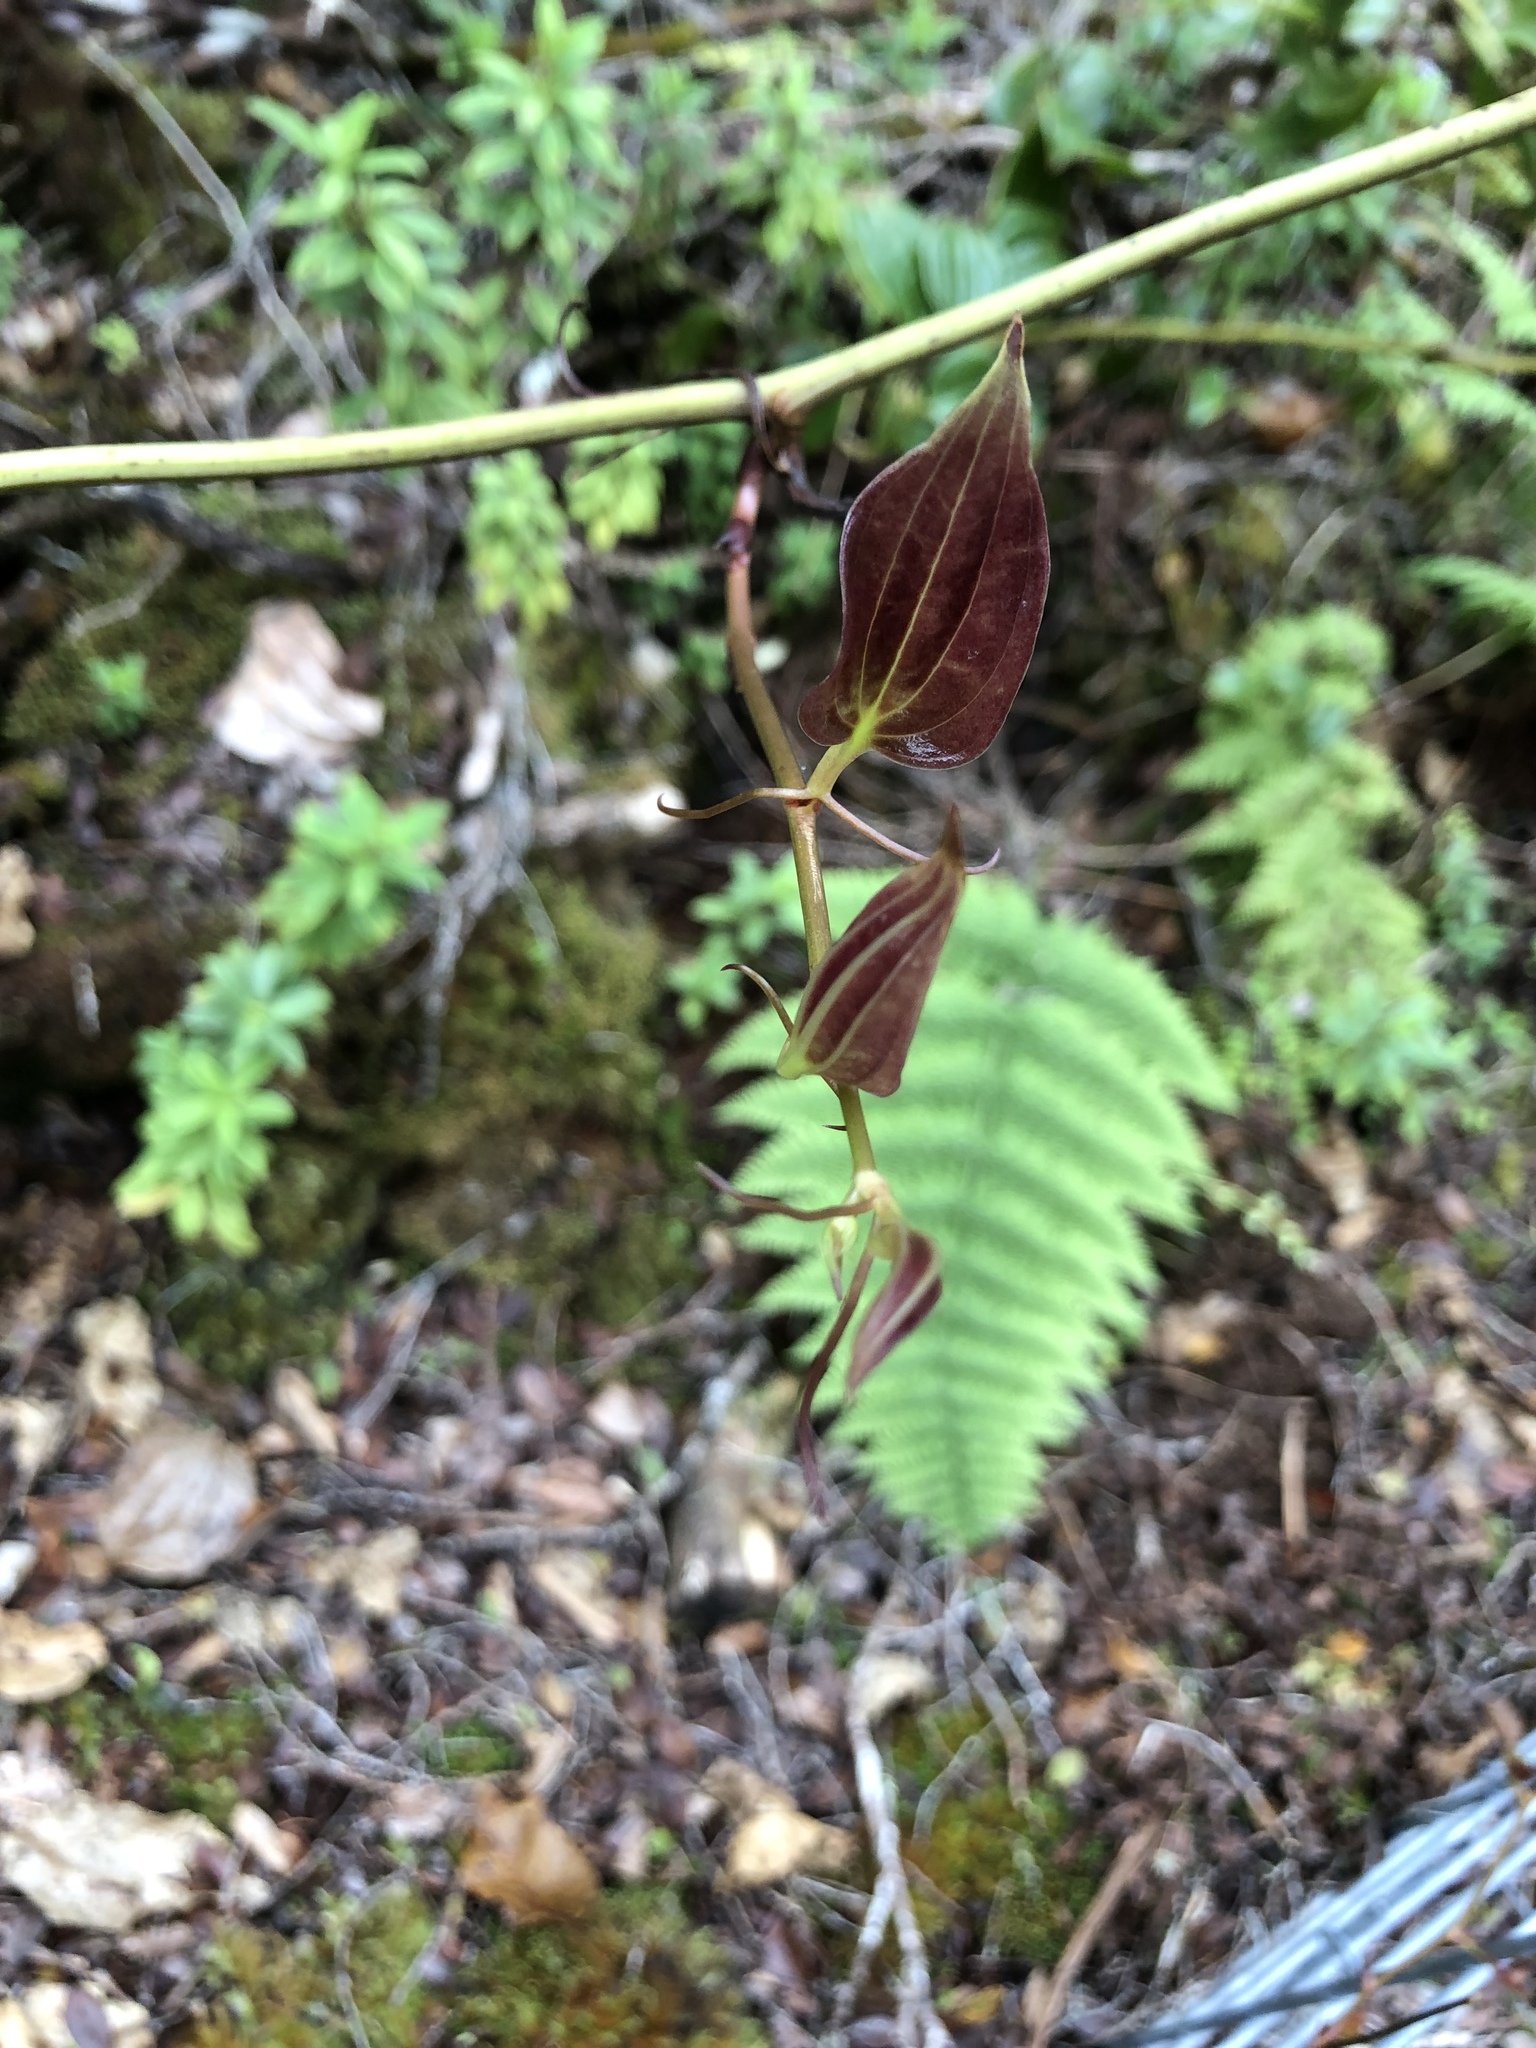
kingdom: Plantae
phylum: Tracheophyta
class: Liliopsida
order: Liliales
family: Smilacaceae
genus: Smilax
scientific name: Smilax melastomifolia
